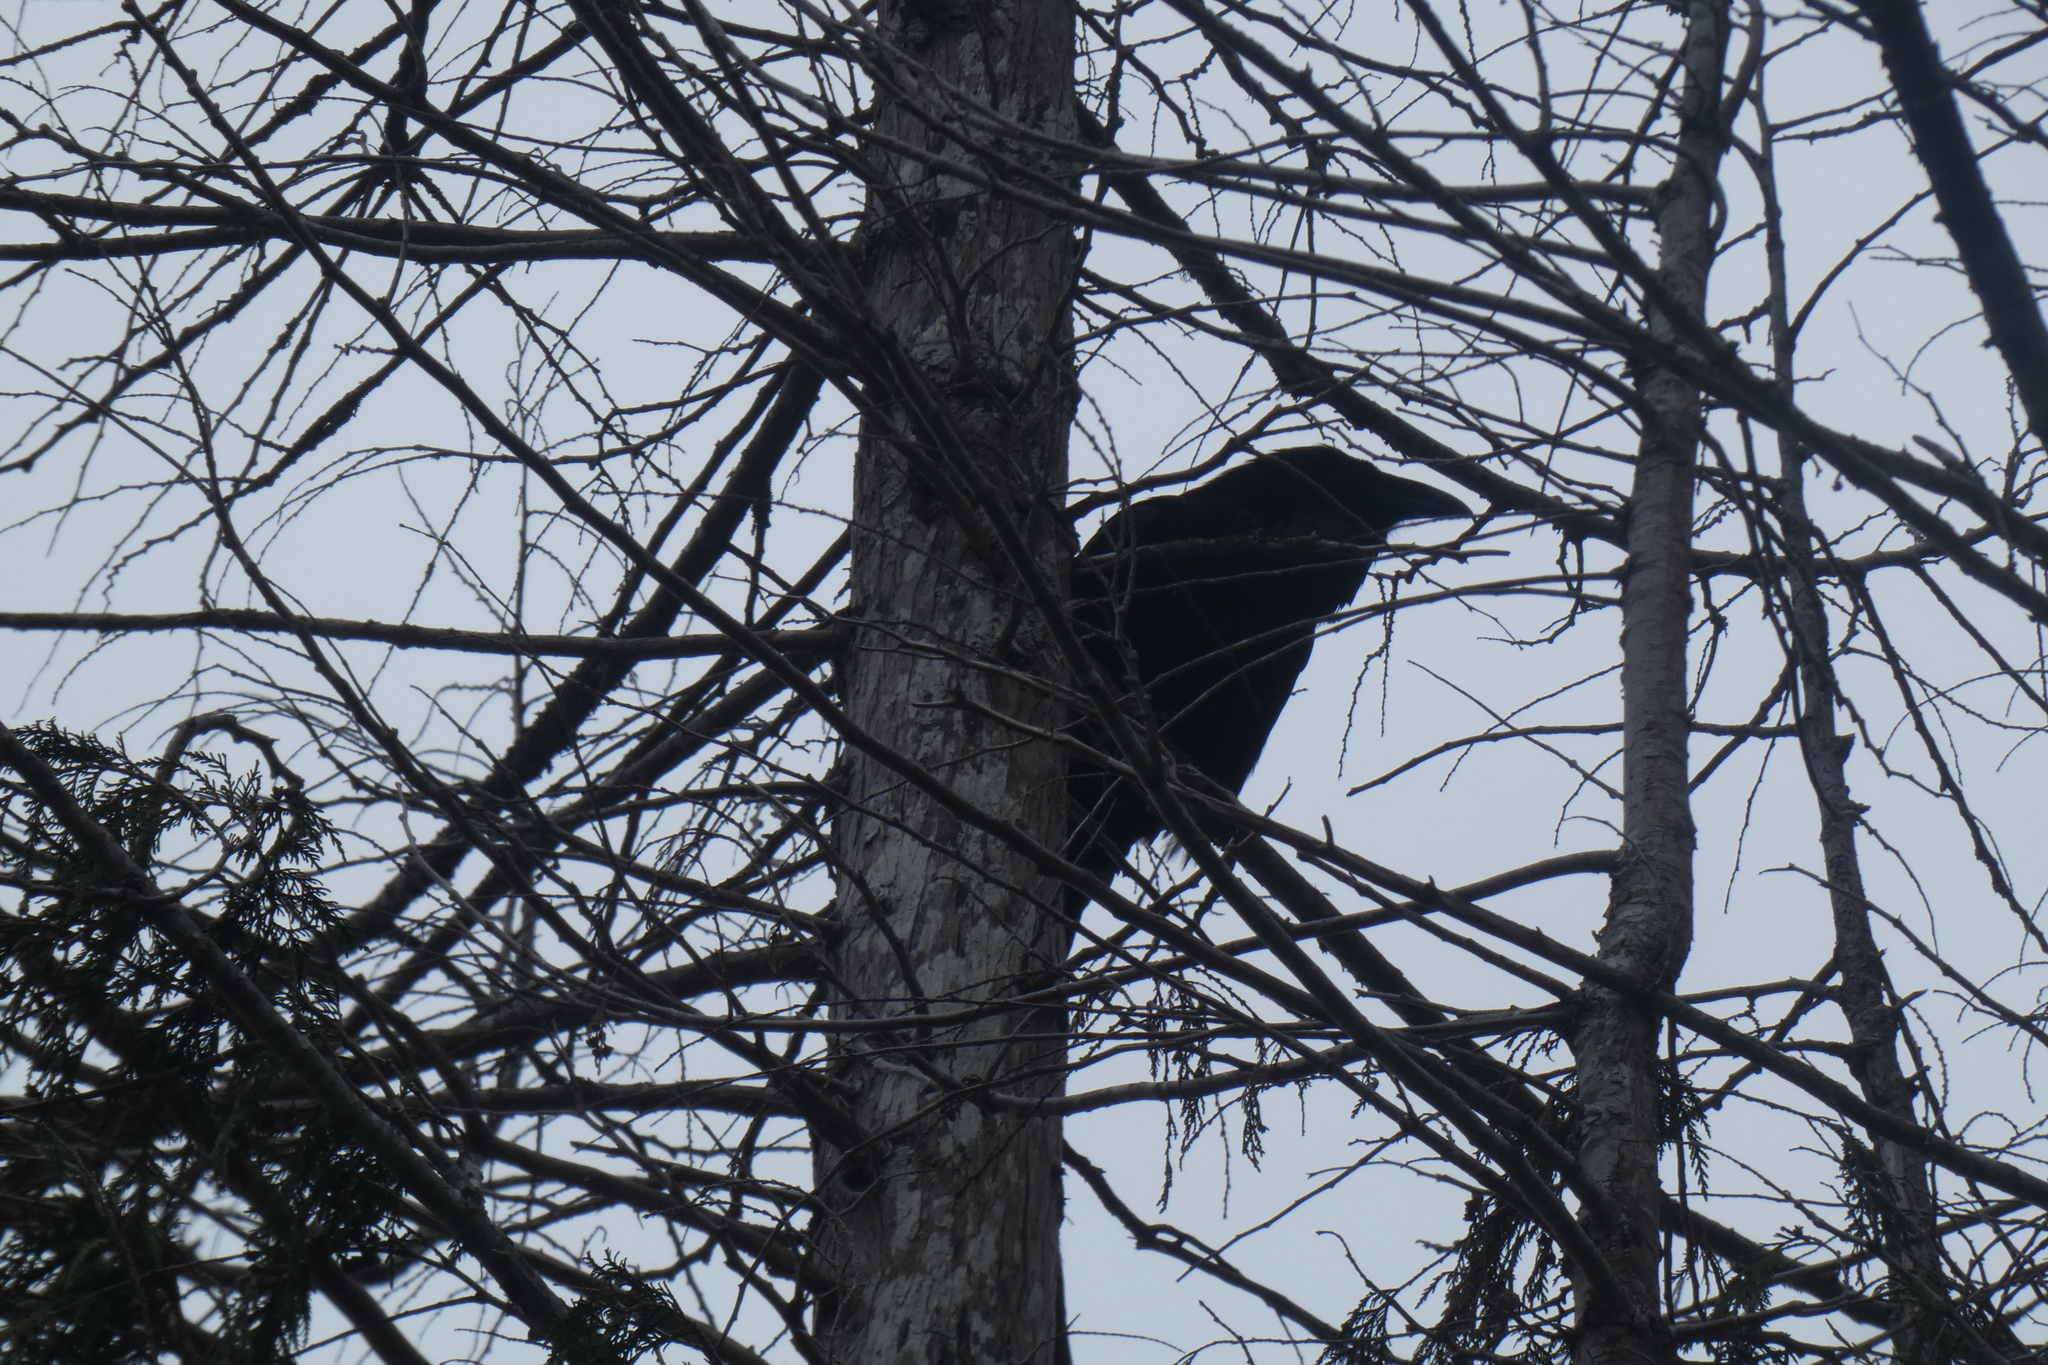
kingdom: Animalia
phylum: Chordata
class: Aves
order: Passeriformes
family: Corvidae
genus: Corvus
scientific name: Corvus corax
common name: Common raven
